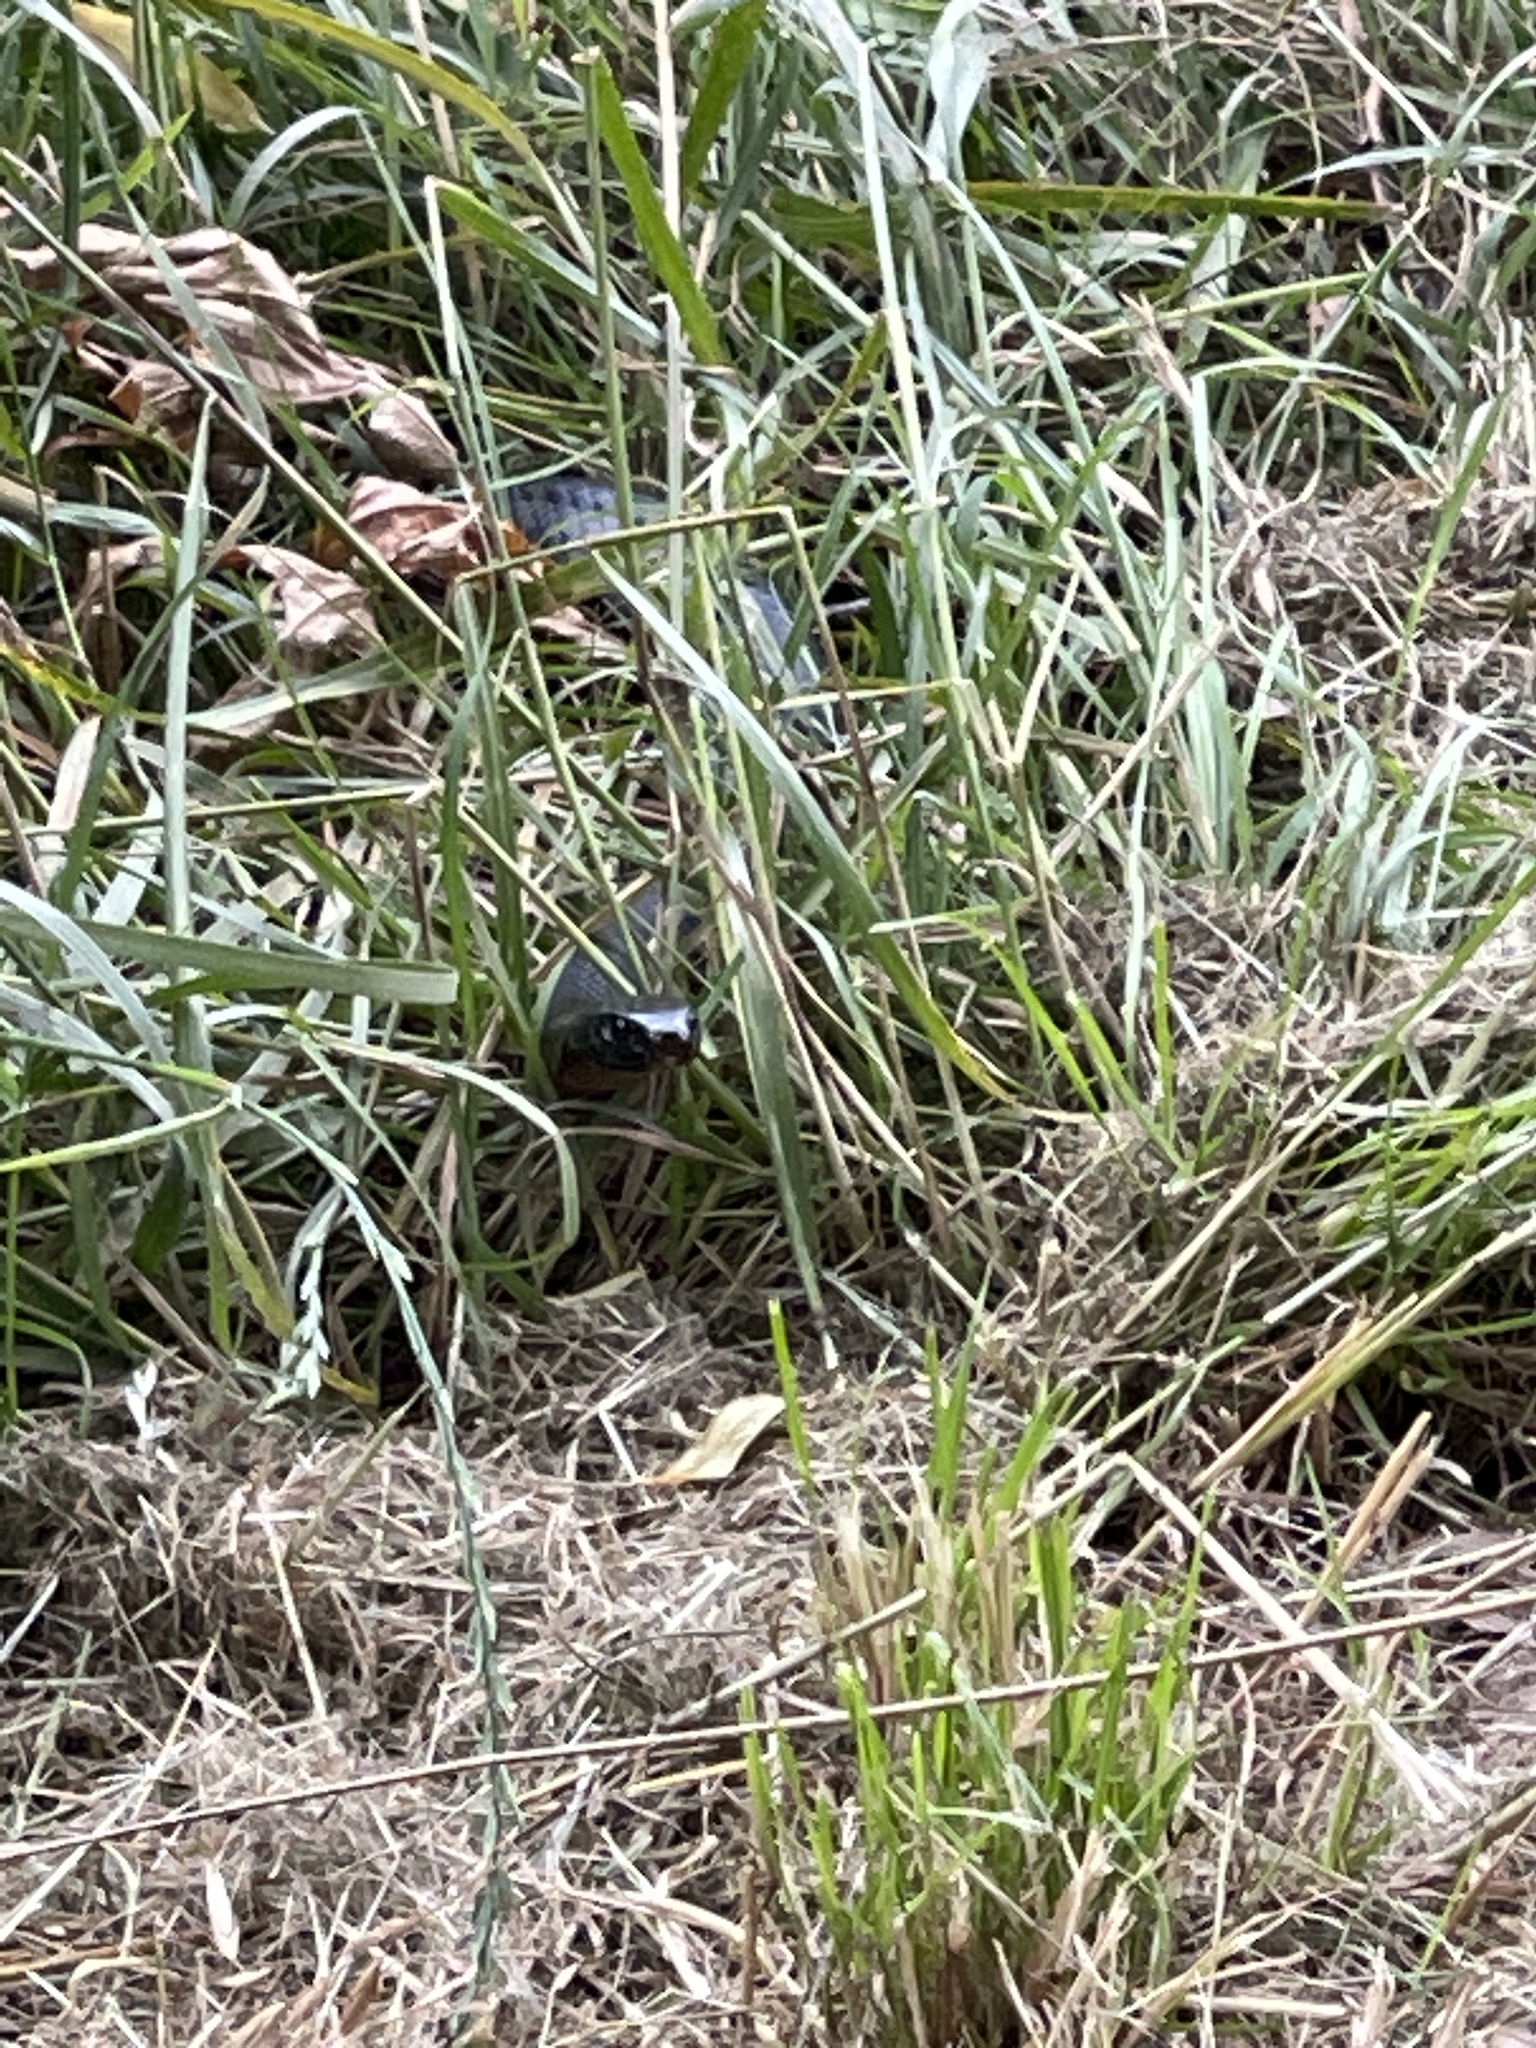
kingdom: Animalia
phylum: Chordata
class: Squamata
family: Elapidae
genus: Pseudechis
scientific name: Pseudechis porphyriacus
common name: Australian black snake
